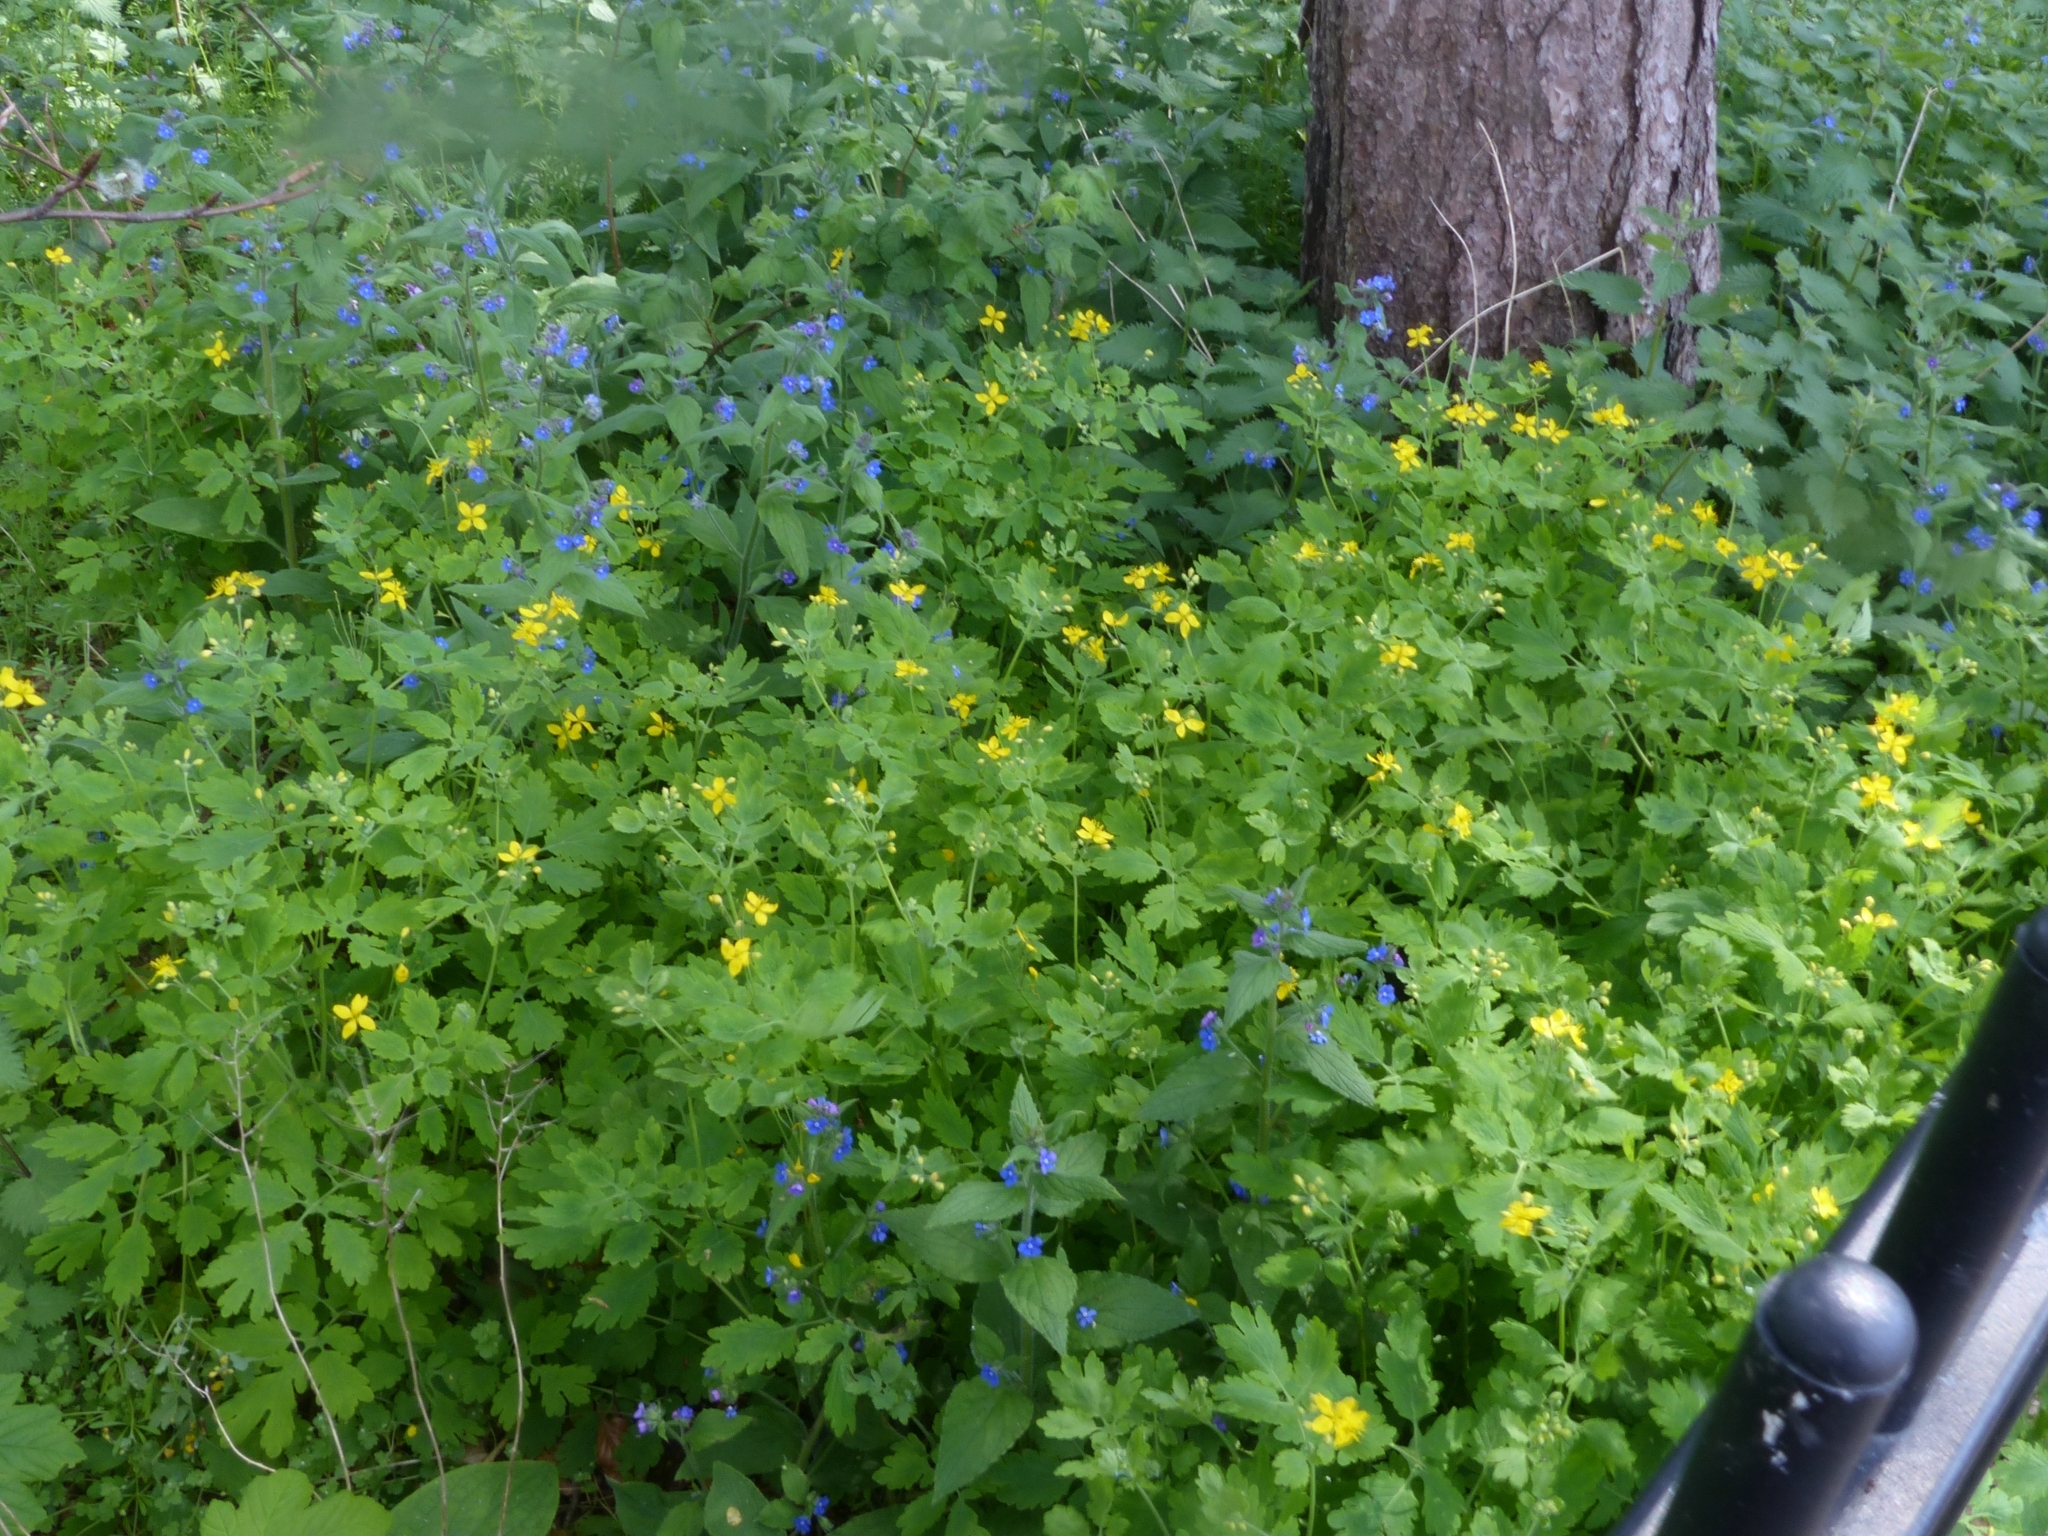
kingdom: Plantae
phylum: Tracheophyta
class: Magnoliopsida
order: Ranunculales
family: Papaveraceae
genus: Chelidonium
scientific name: Chelidonium majus
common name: Greater celandine
